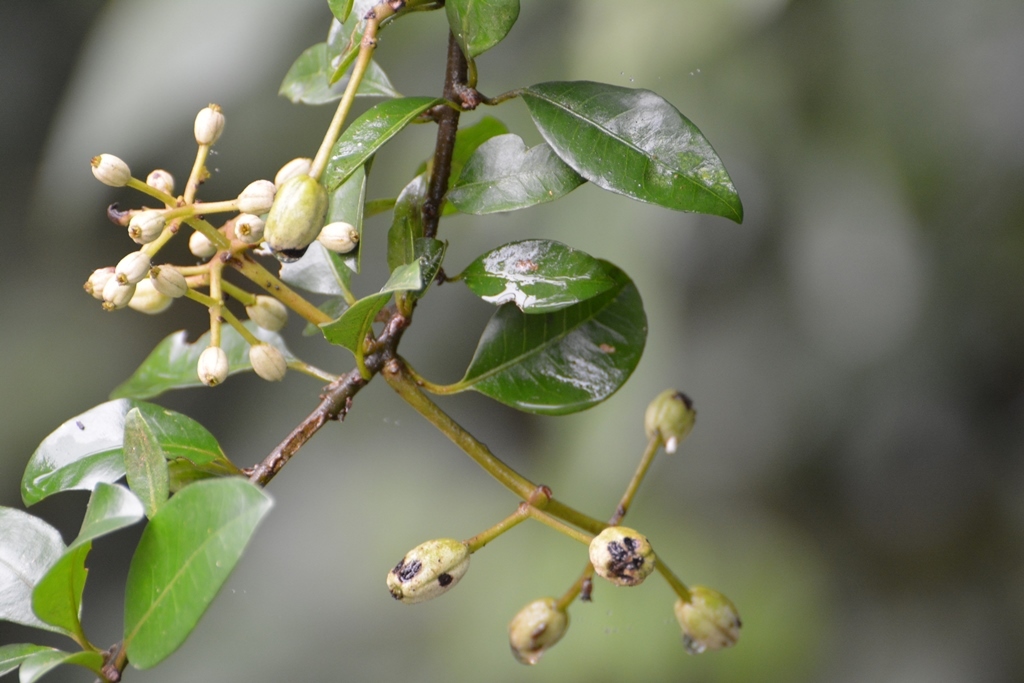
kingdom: Plantae
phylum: Tracheophyta
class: Magnoliopsida
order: Caryophyllales
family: Nyctaginaceae
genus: Pisonia
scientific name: Pisonia donnellsmithii
